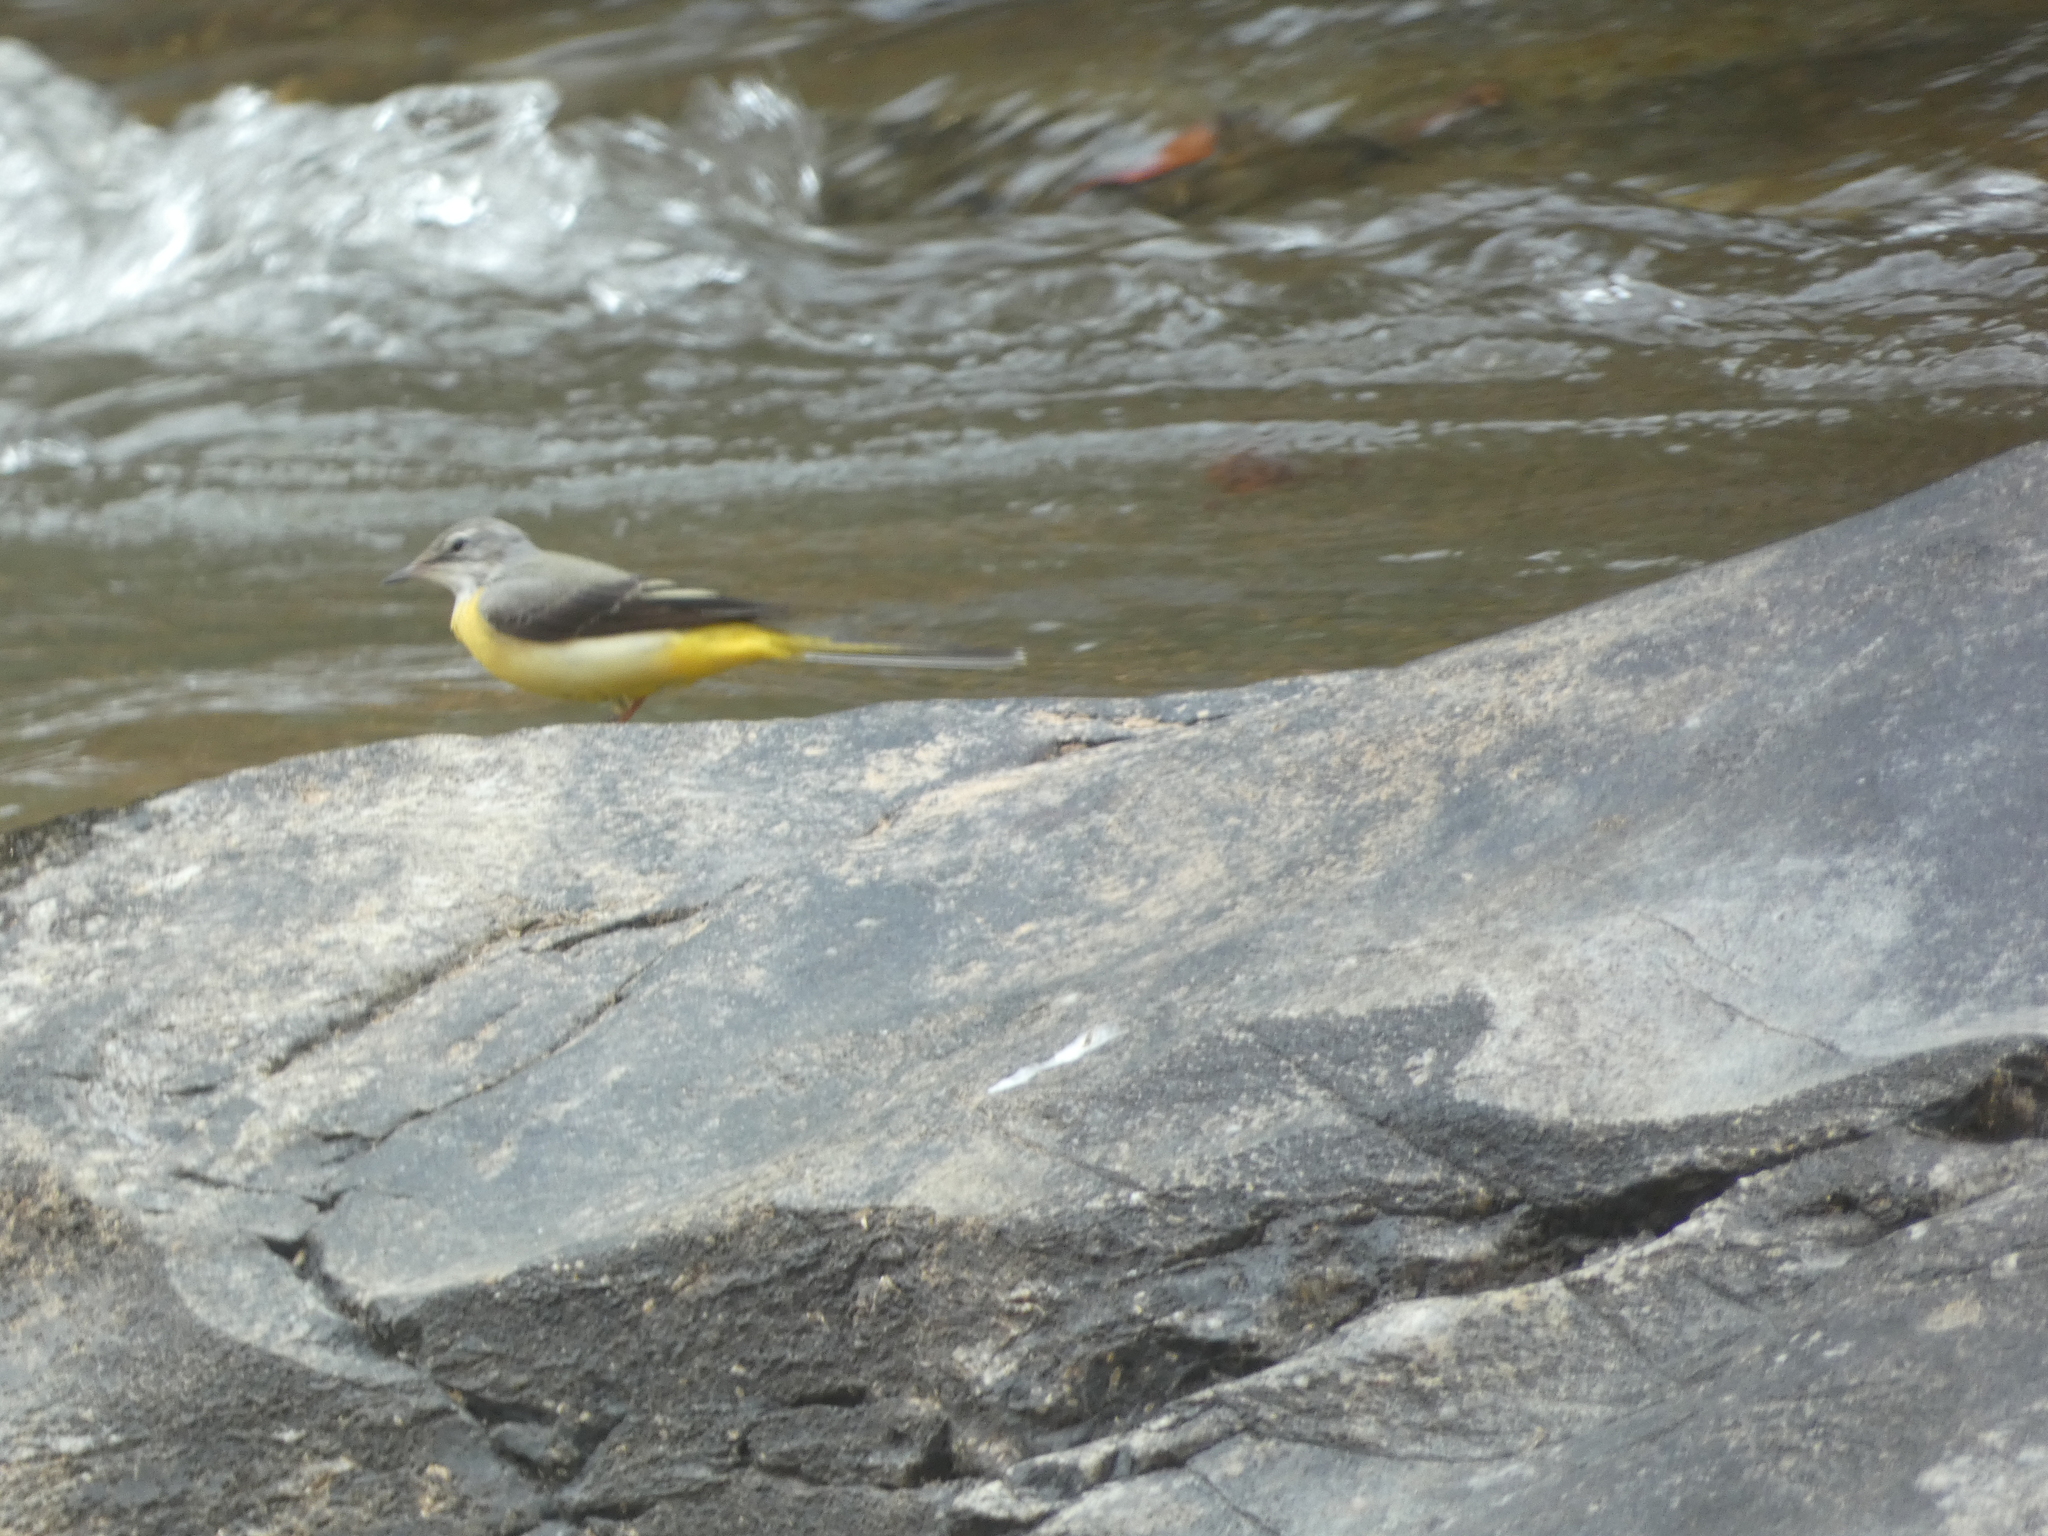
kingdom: Animalia
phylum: Chordata
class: Aves
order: Passeriformes
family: Motacillidae
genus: Motacilla
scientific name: Motacilla cinerea
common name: Grey wagtail
